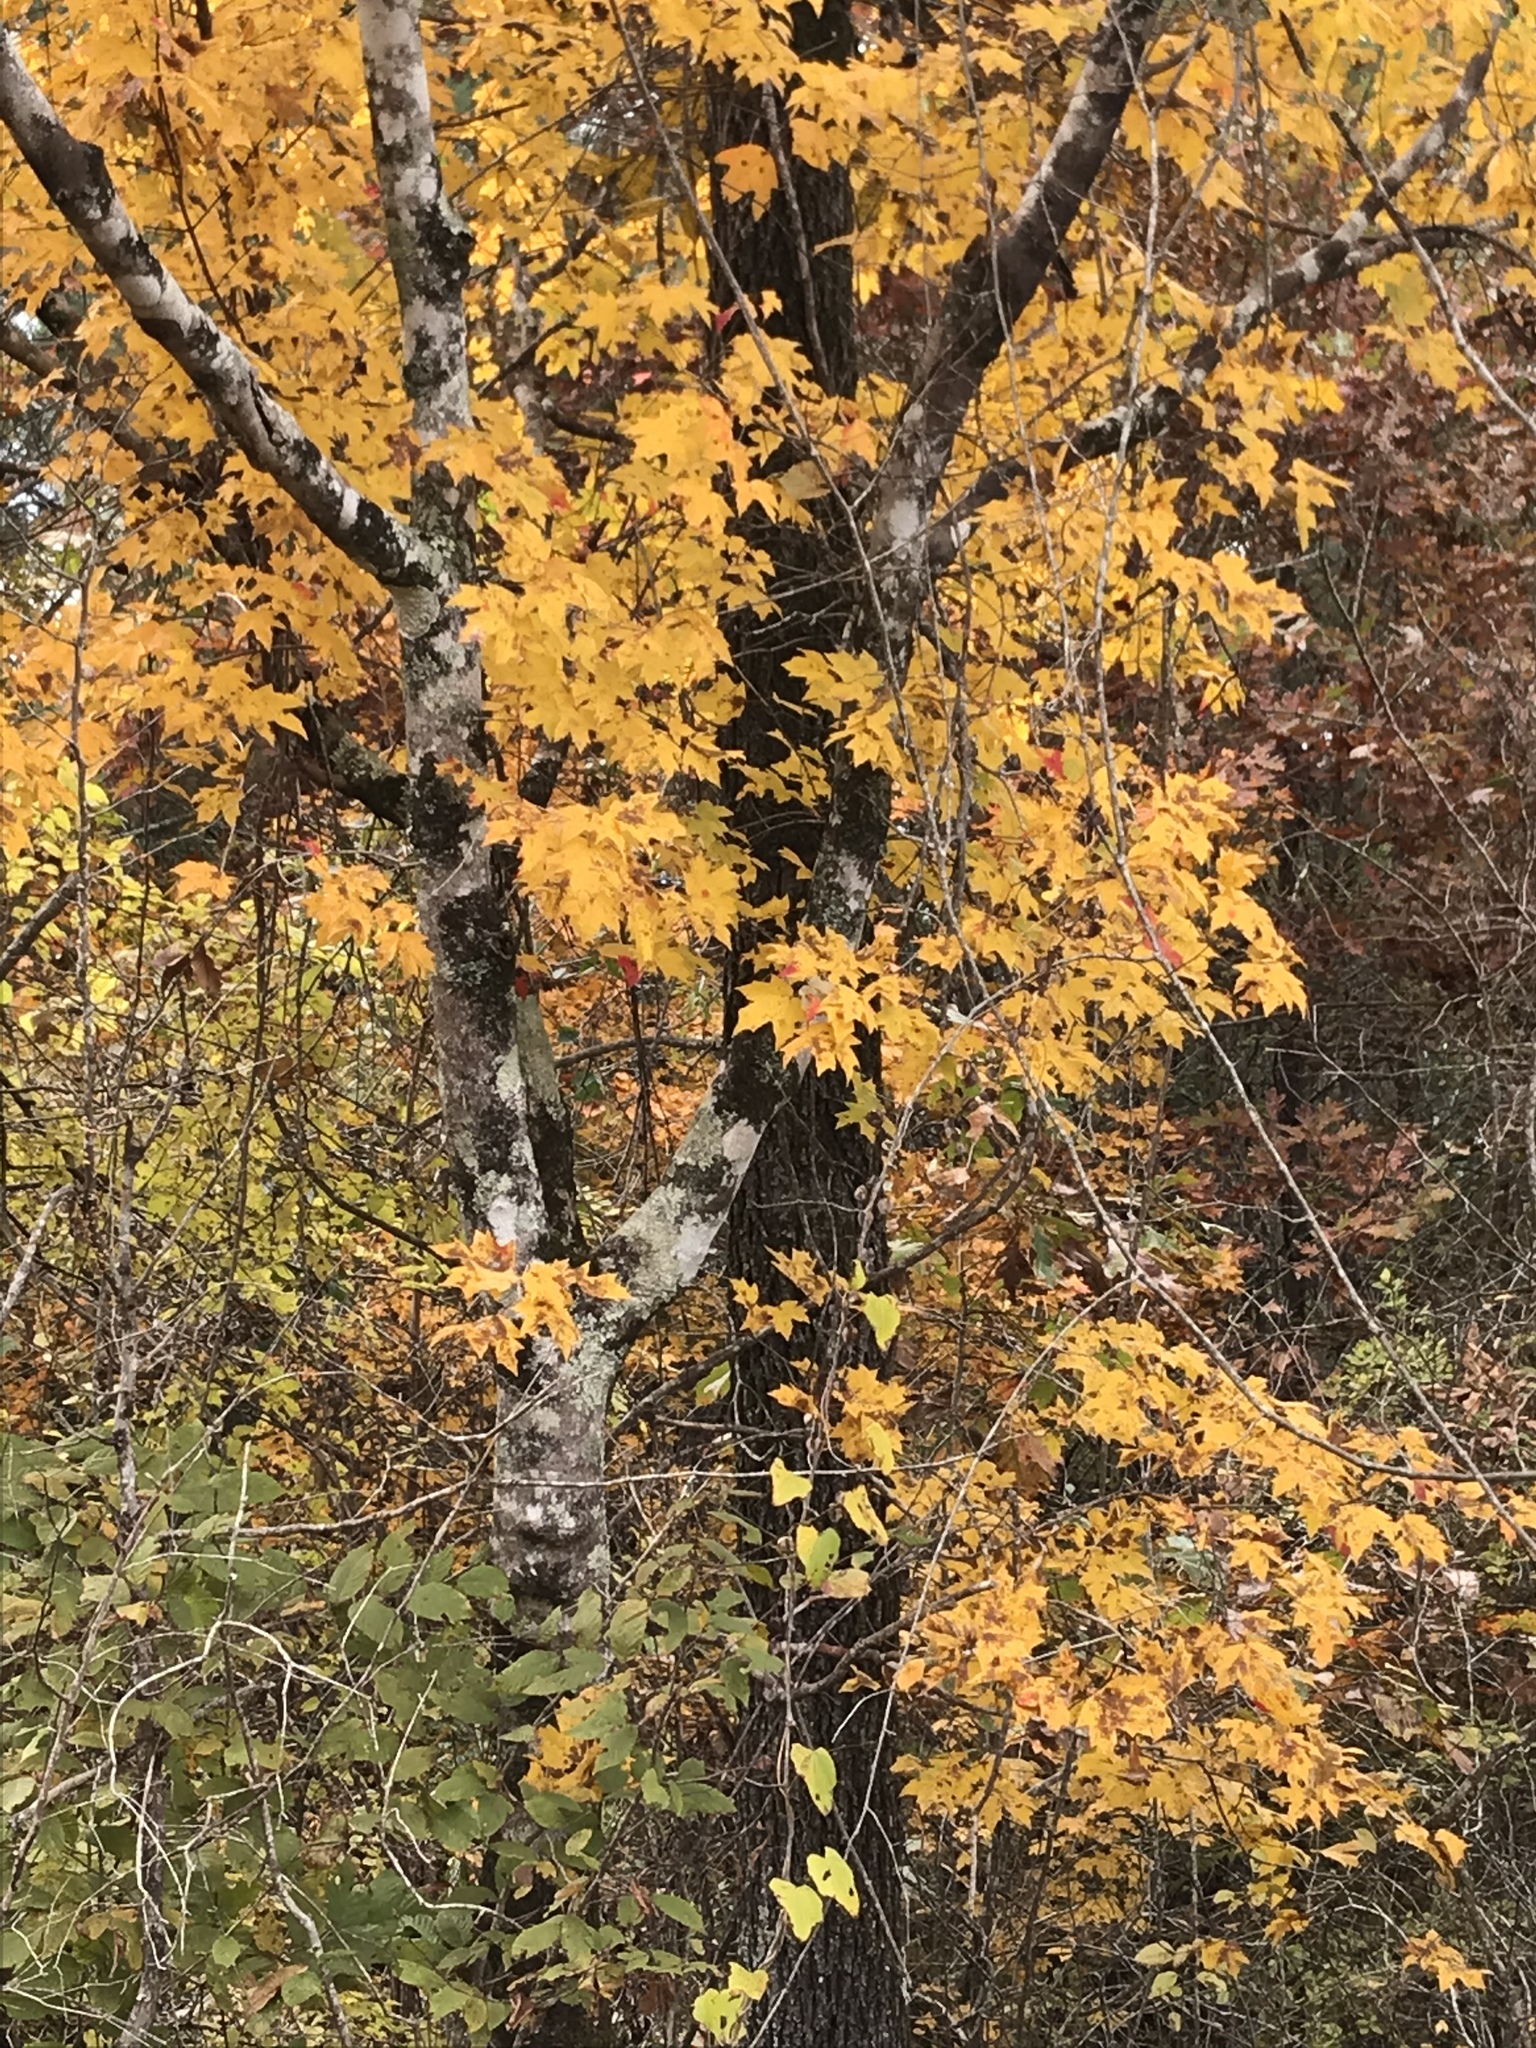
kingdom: Plantae
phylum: Tracheophyta
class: Magnoliopsida
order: Sapindales
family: Sapindaceae
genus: Acer
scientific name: Acer floridanum
